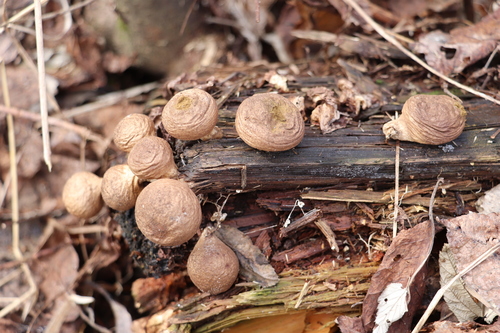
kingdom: Fungi
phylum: Basidiomycota
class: Agaricomycetes
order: Agaricales
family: Lycoperdaceae
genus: Apioperdon
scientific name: Apioperdon pyriforme
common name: Pear-shaped puffball
